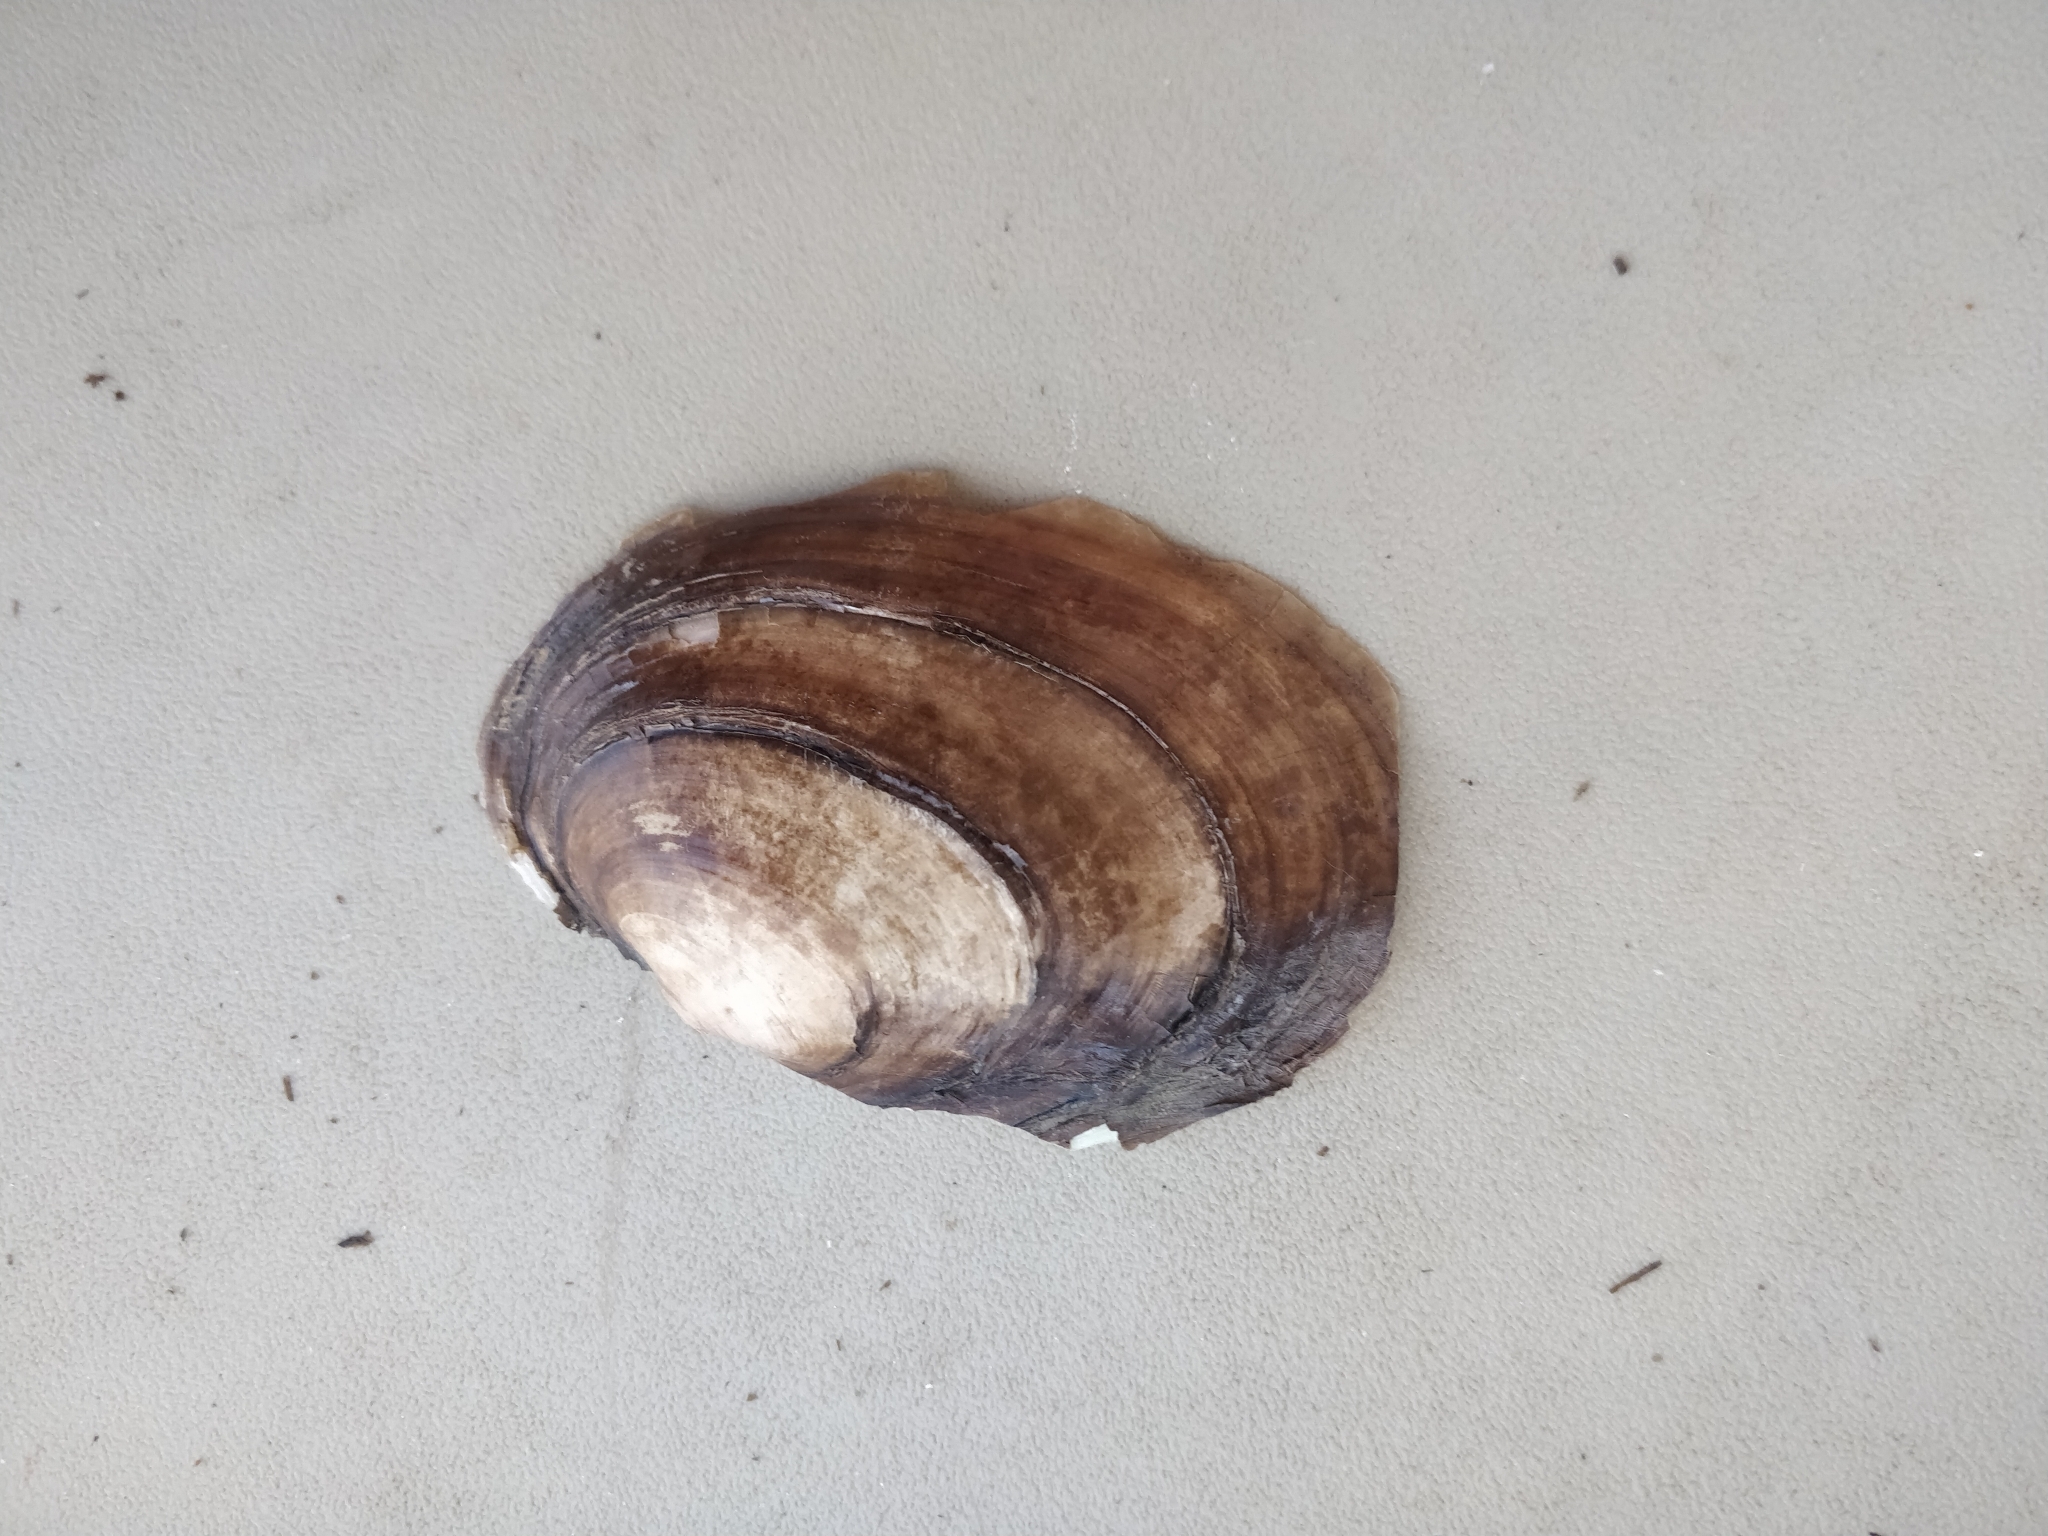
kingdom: Animalia
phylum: Mollusca
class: Bivalvia
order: Unionida
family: Unionidae
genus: Potamilus
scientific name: Potamilus ohiensis
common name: Pink papershell
